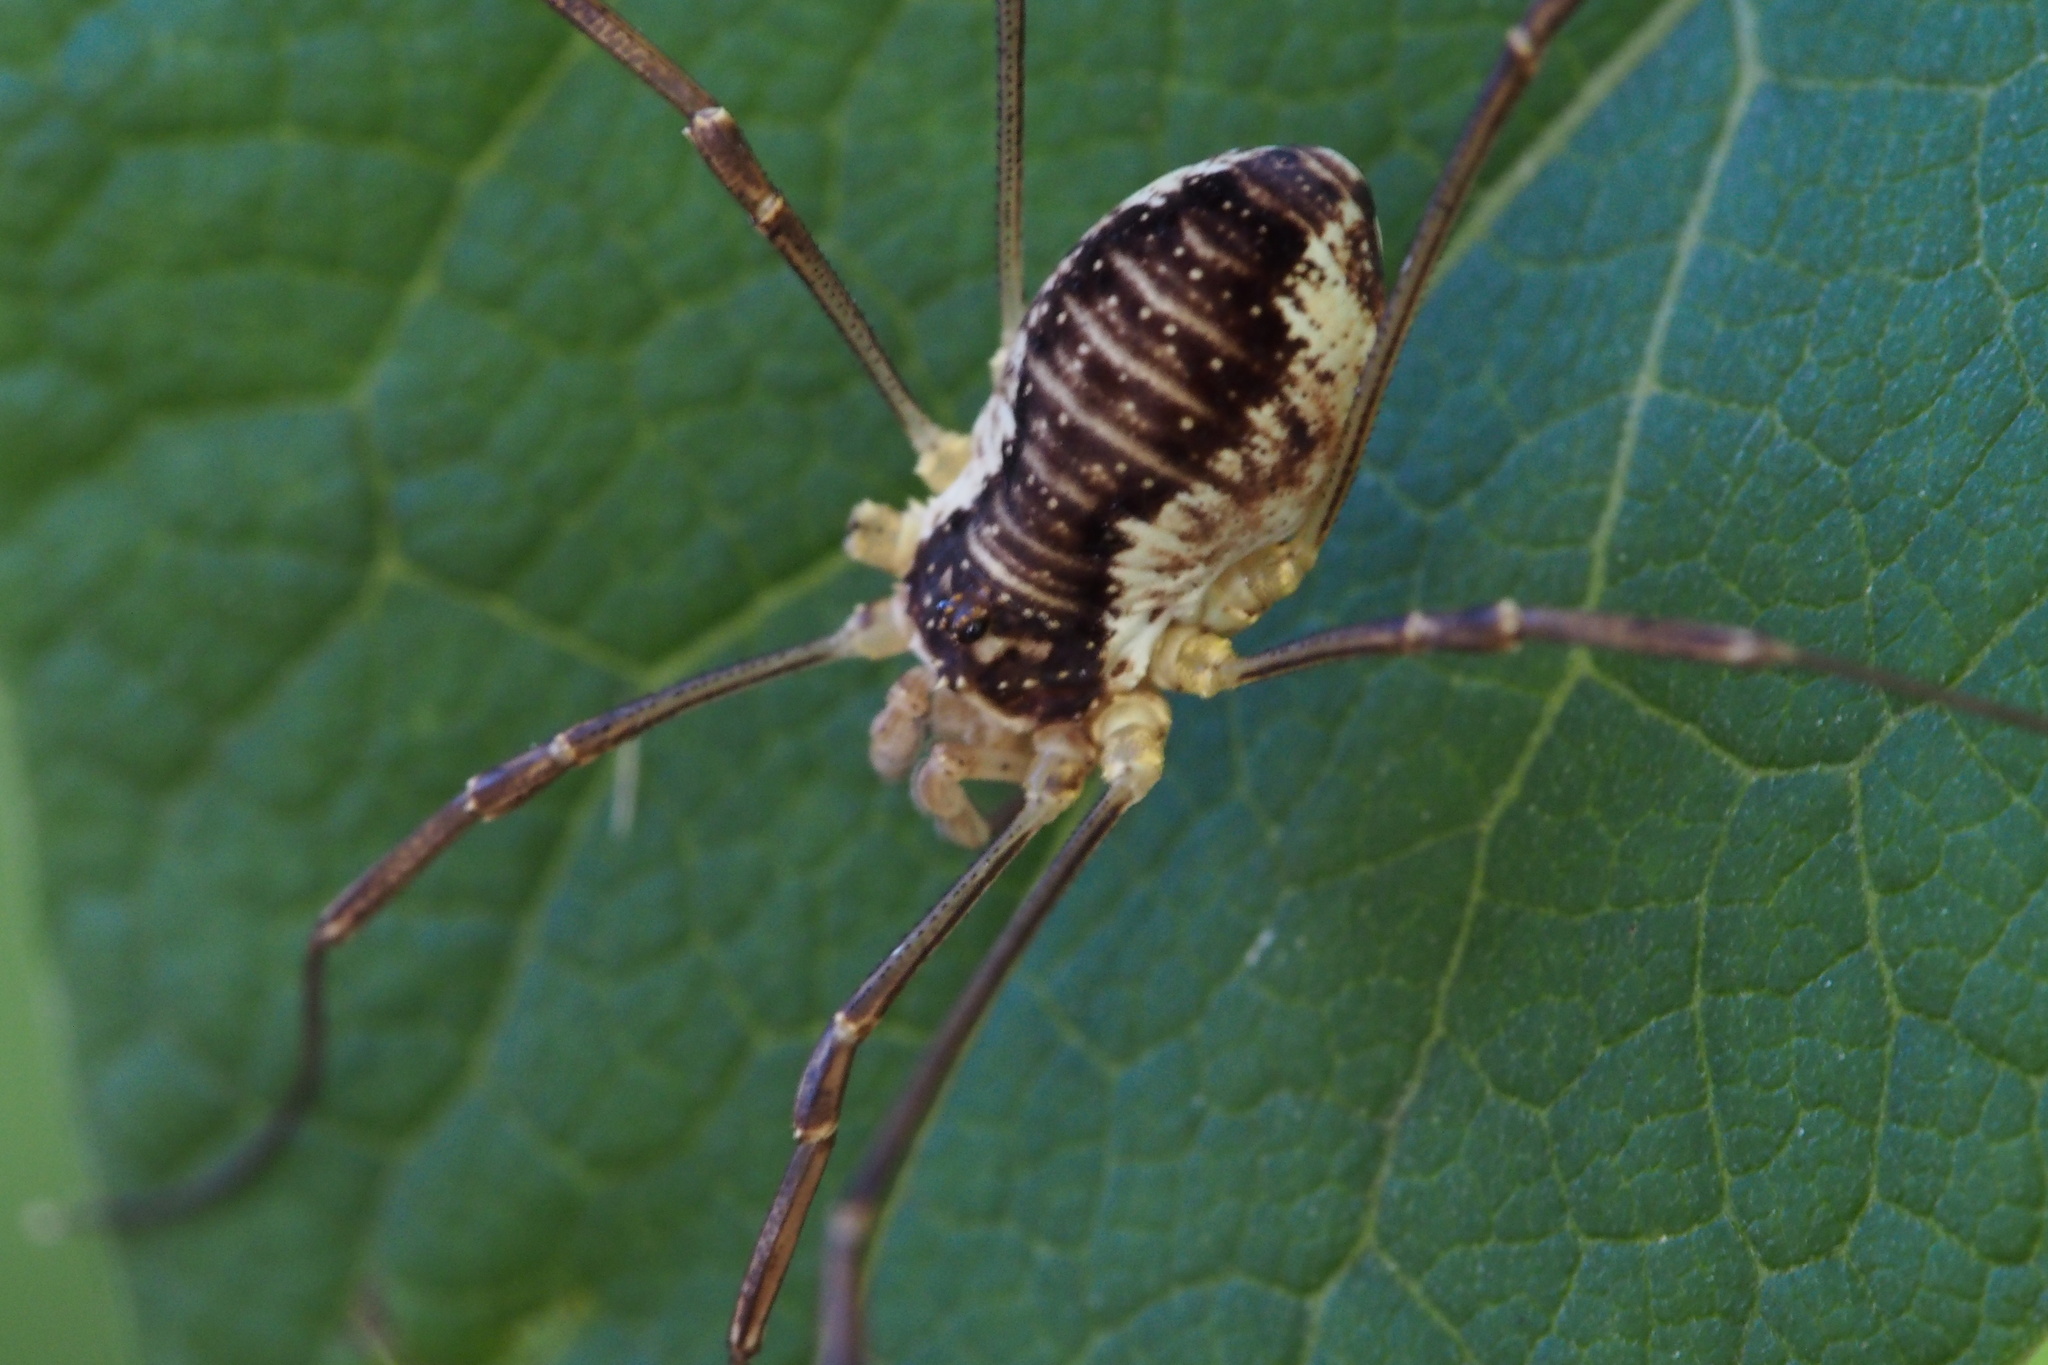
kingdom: Animalia
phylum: Arthropoda
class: Arachnida
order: Opiliones
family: Phalangiidae
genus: Odiellus
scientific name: Odiellus aspersus
